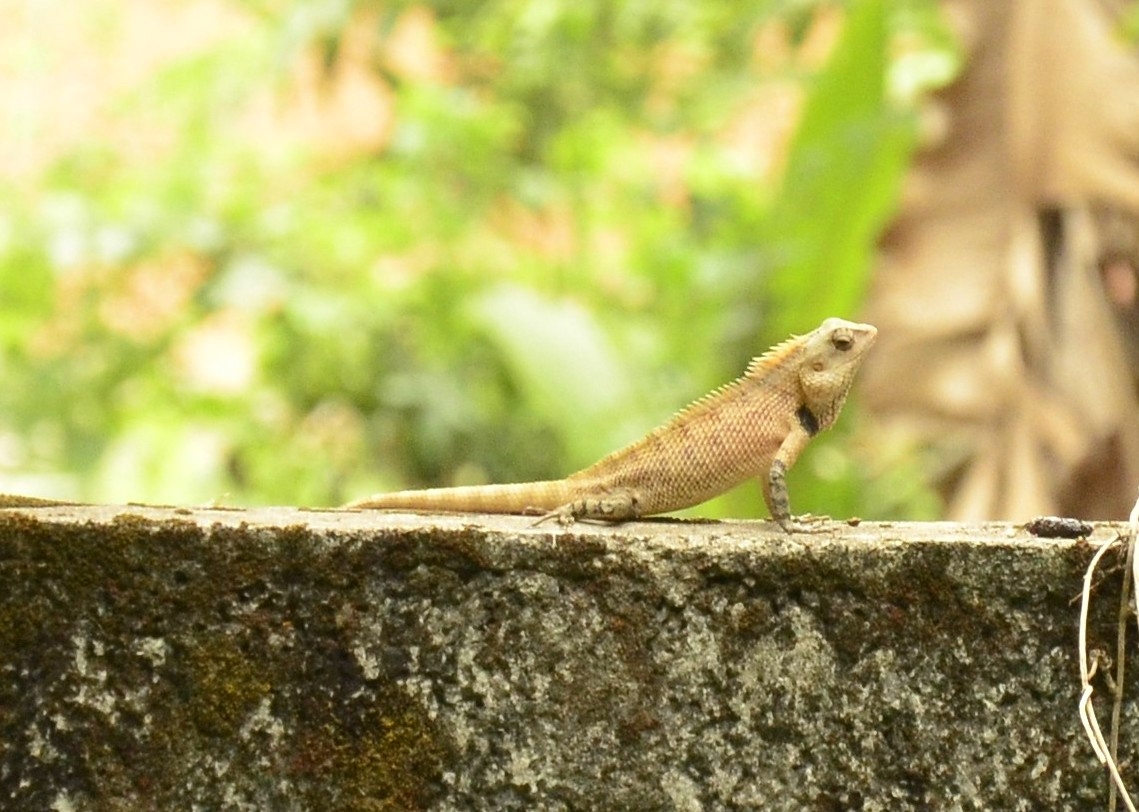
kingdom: Animalia
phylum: Chordata
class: Squamata
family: Agamidae
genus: Calotes
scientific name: Calotes versicolor
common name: Oriental garden lizard
